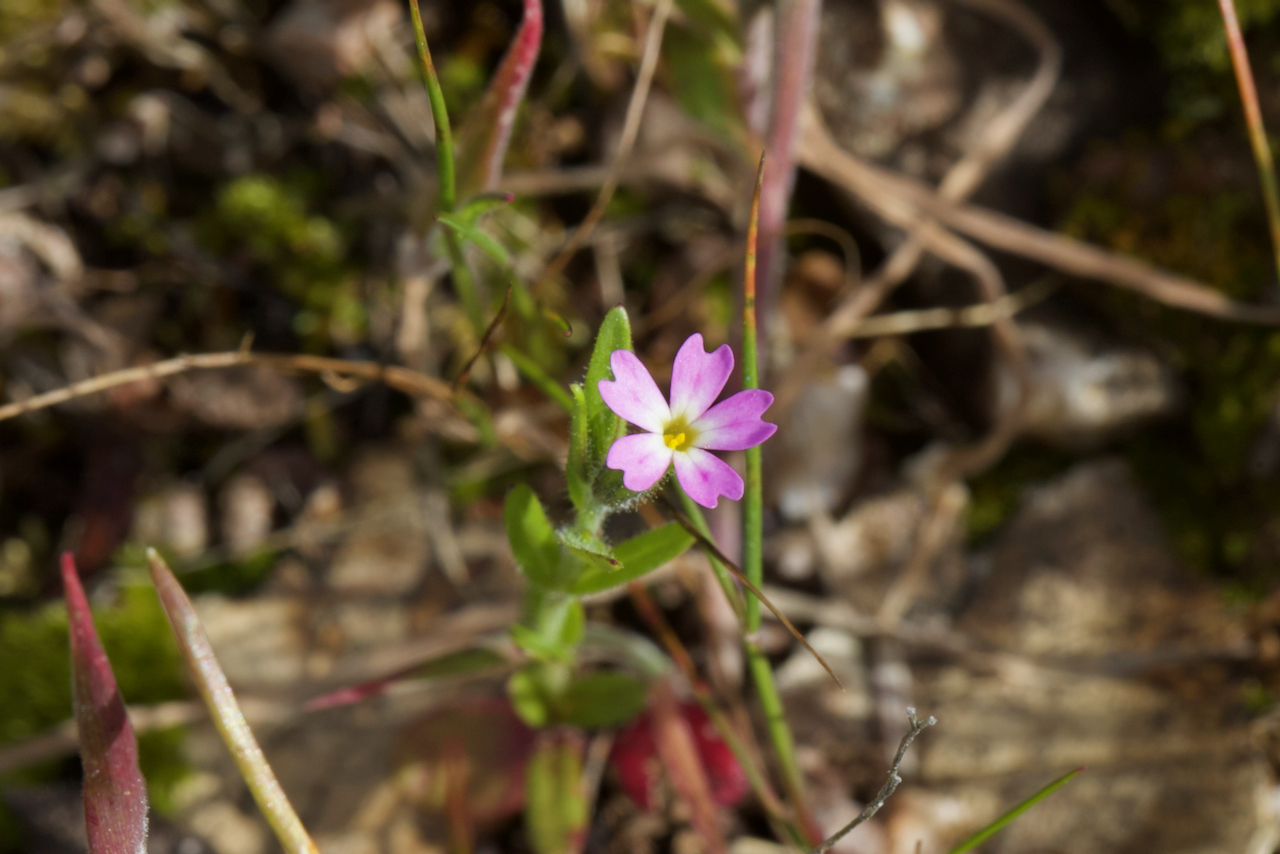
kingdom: Plantae
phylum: Tracheophyta
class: Magnoliopsida
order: Ericales
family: Polemoniaceae
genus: Phlox
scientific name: Phlox gracilis
